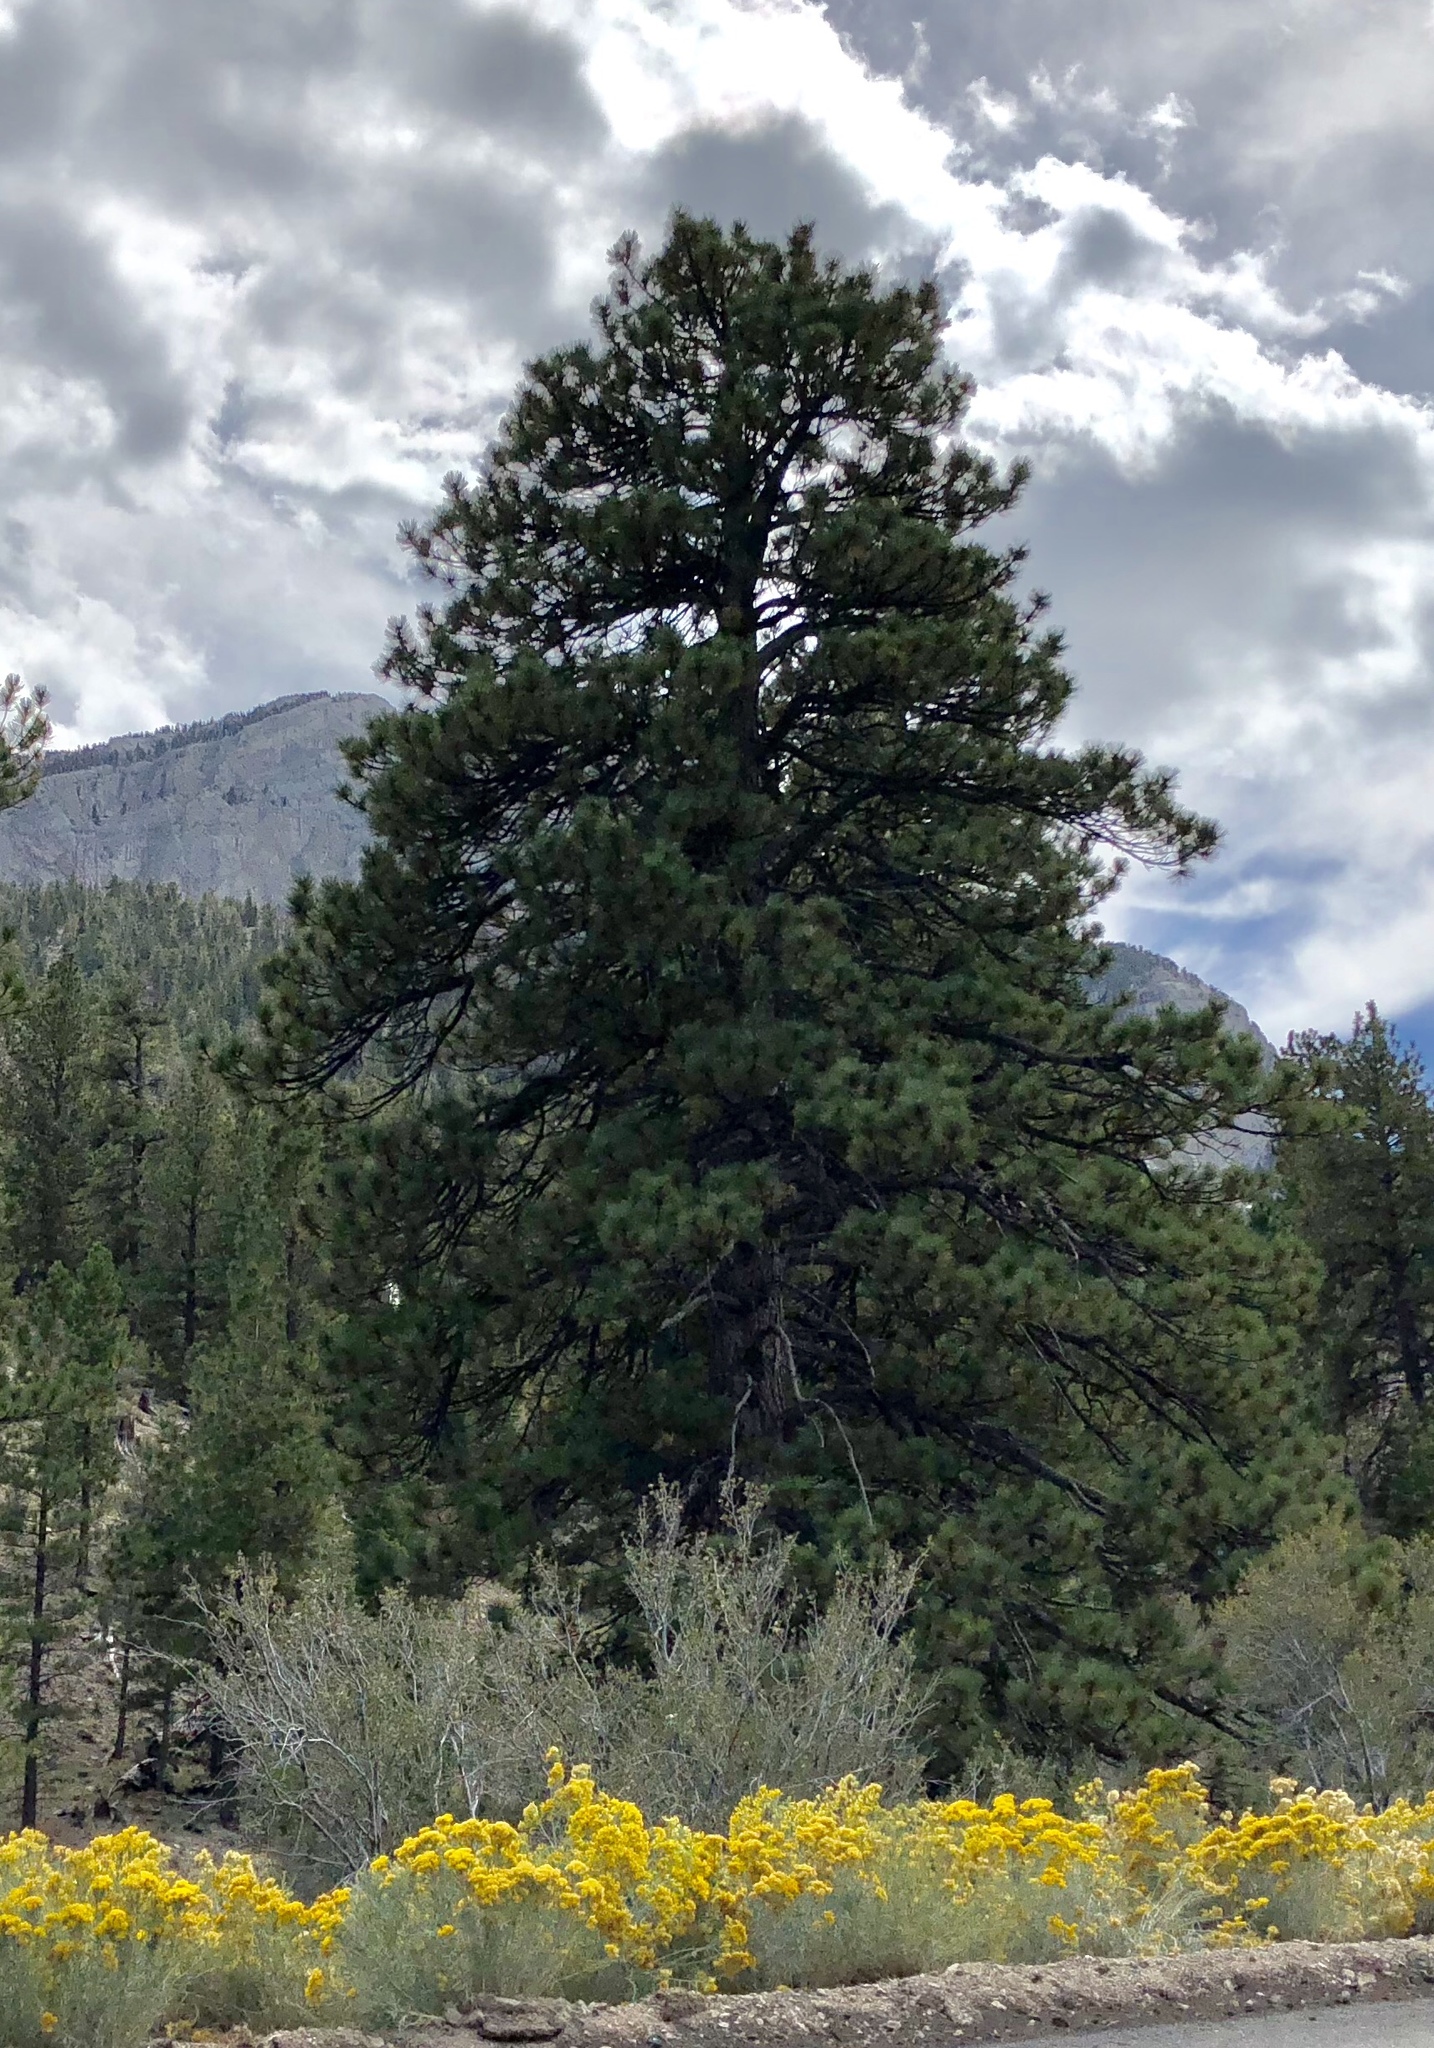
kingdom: Plantae
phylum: Tracheophyta
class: Pinopsida
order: Pinales
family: Pinaceae
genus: Pinus
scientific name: Pinus ponderosa
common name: Western yellow-pine
